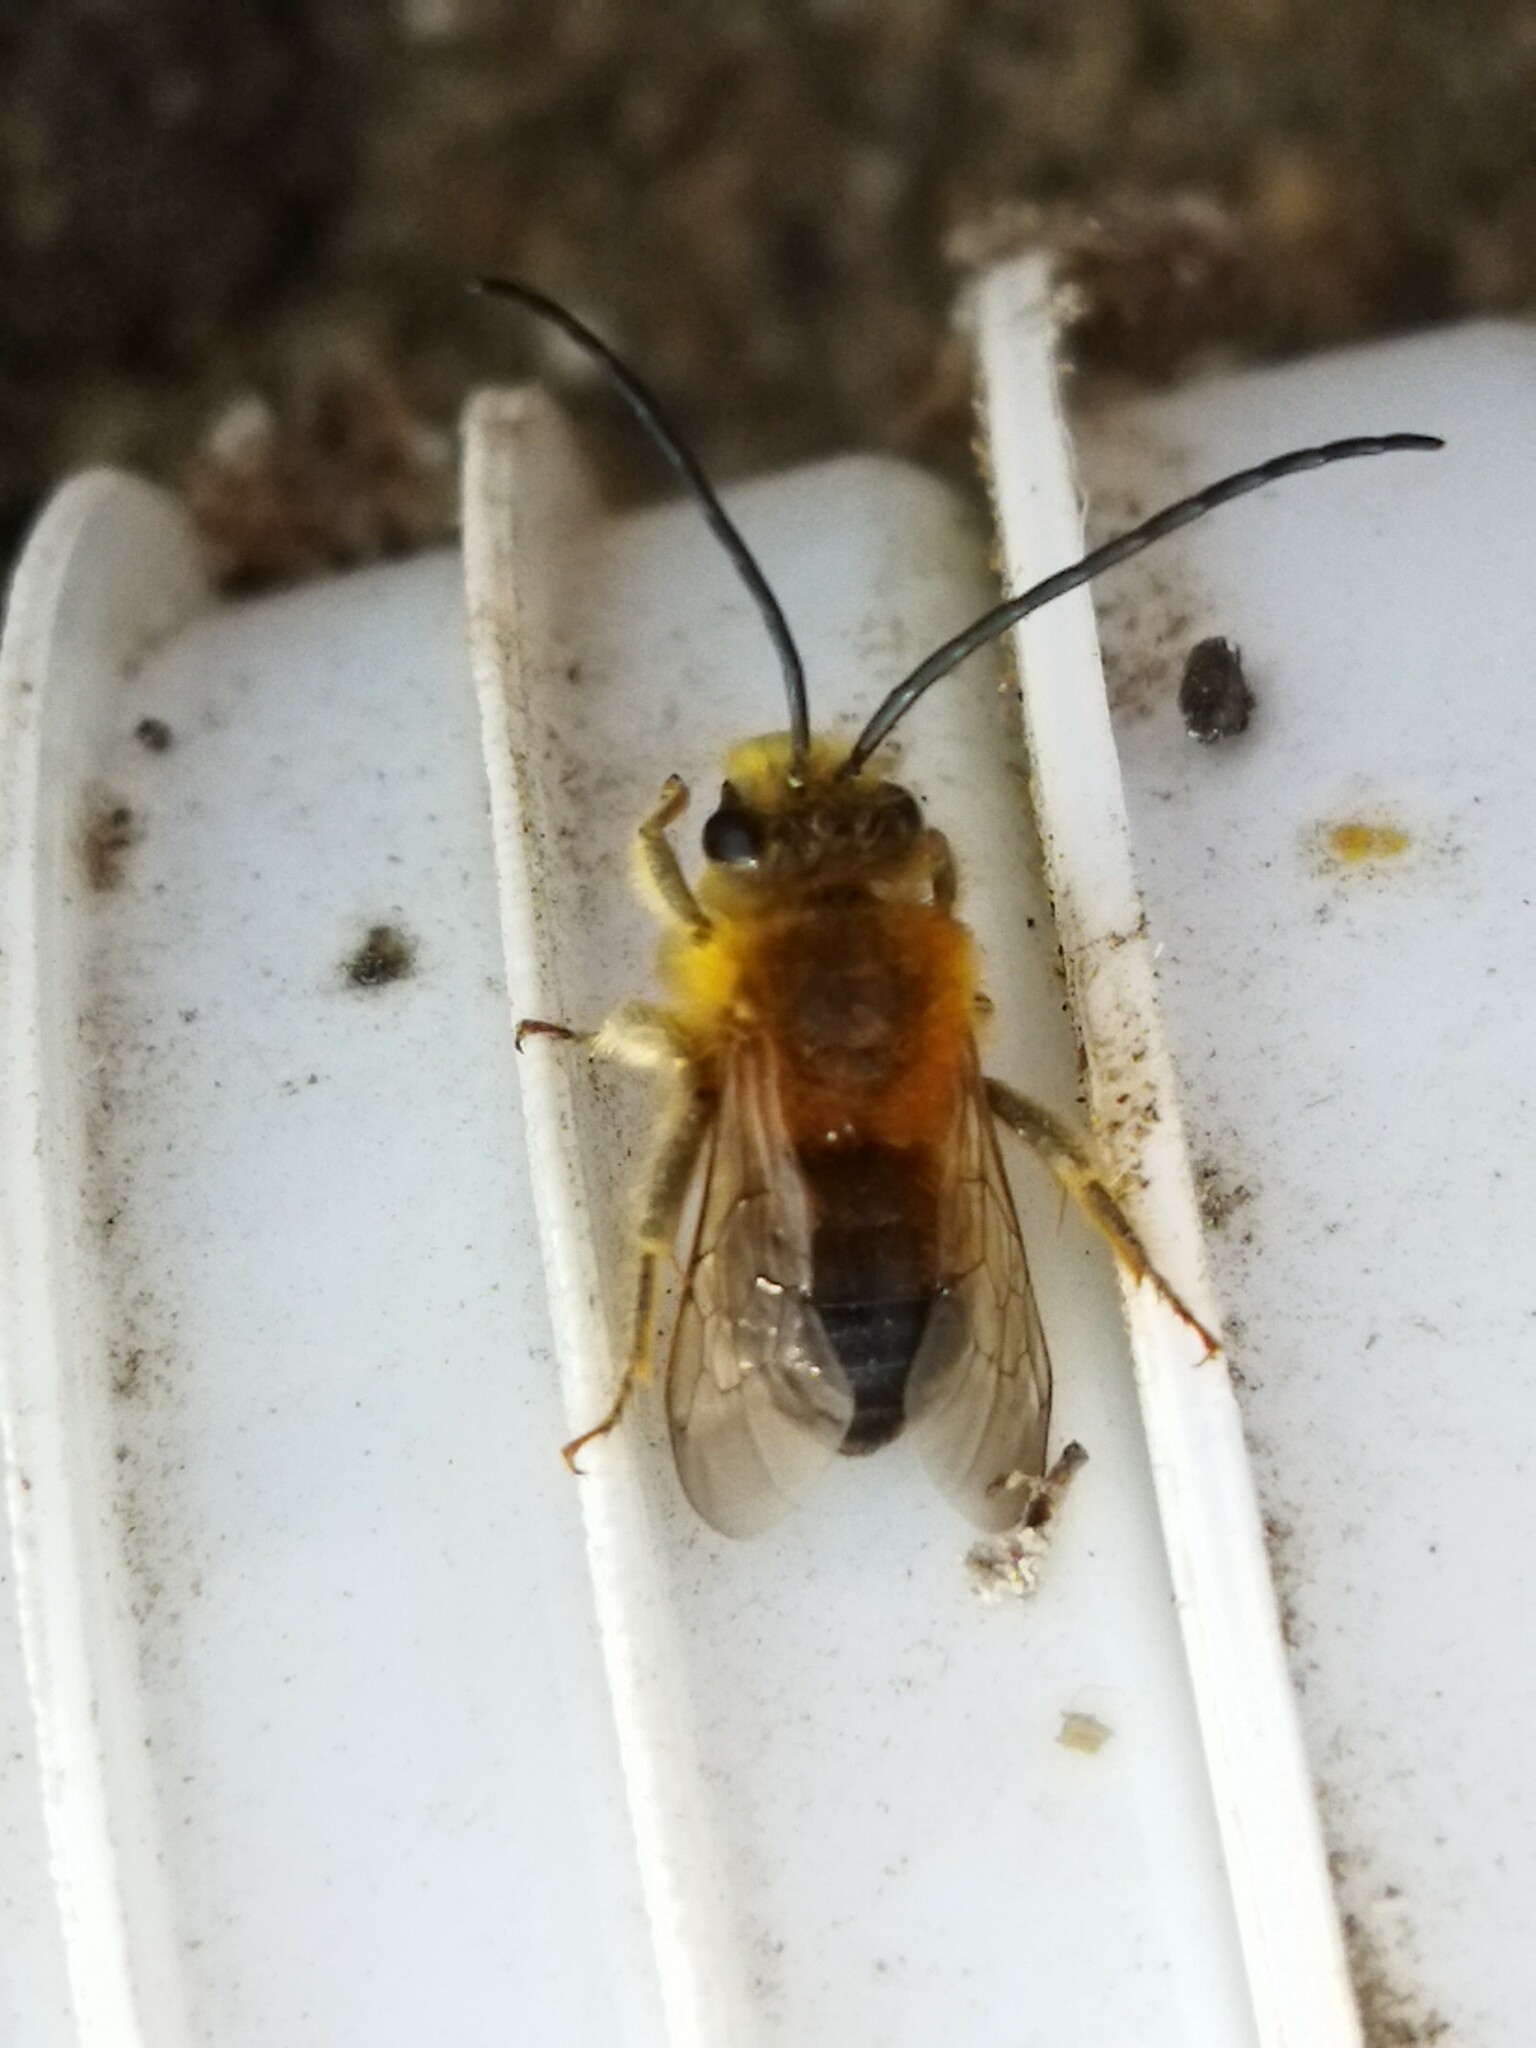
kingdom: Animalia
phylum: Arthropoda
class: Insecta
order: Hymenoptera
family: Apidae
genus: Eucera
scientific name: Eucera longicornis
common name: Long-horned bee
